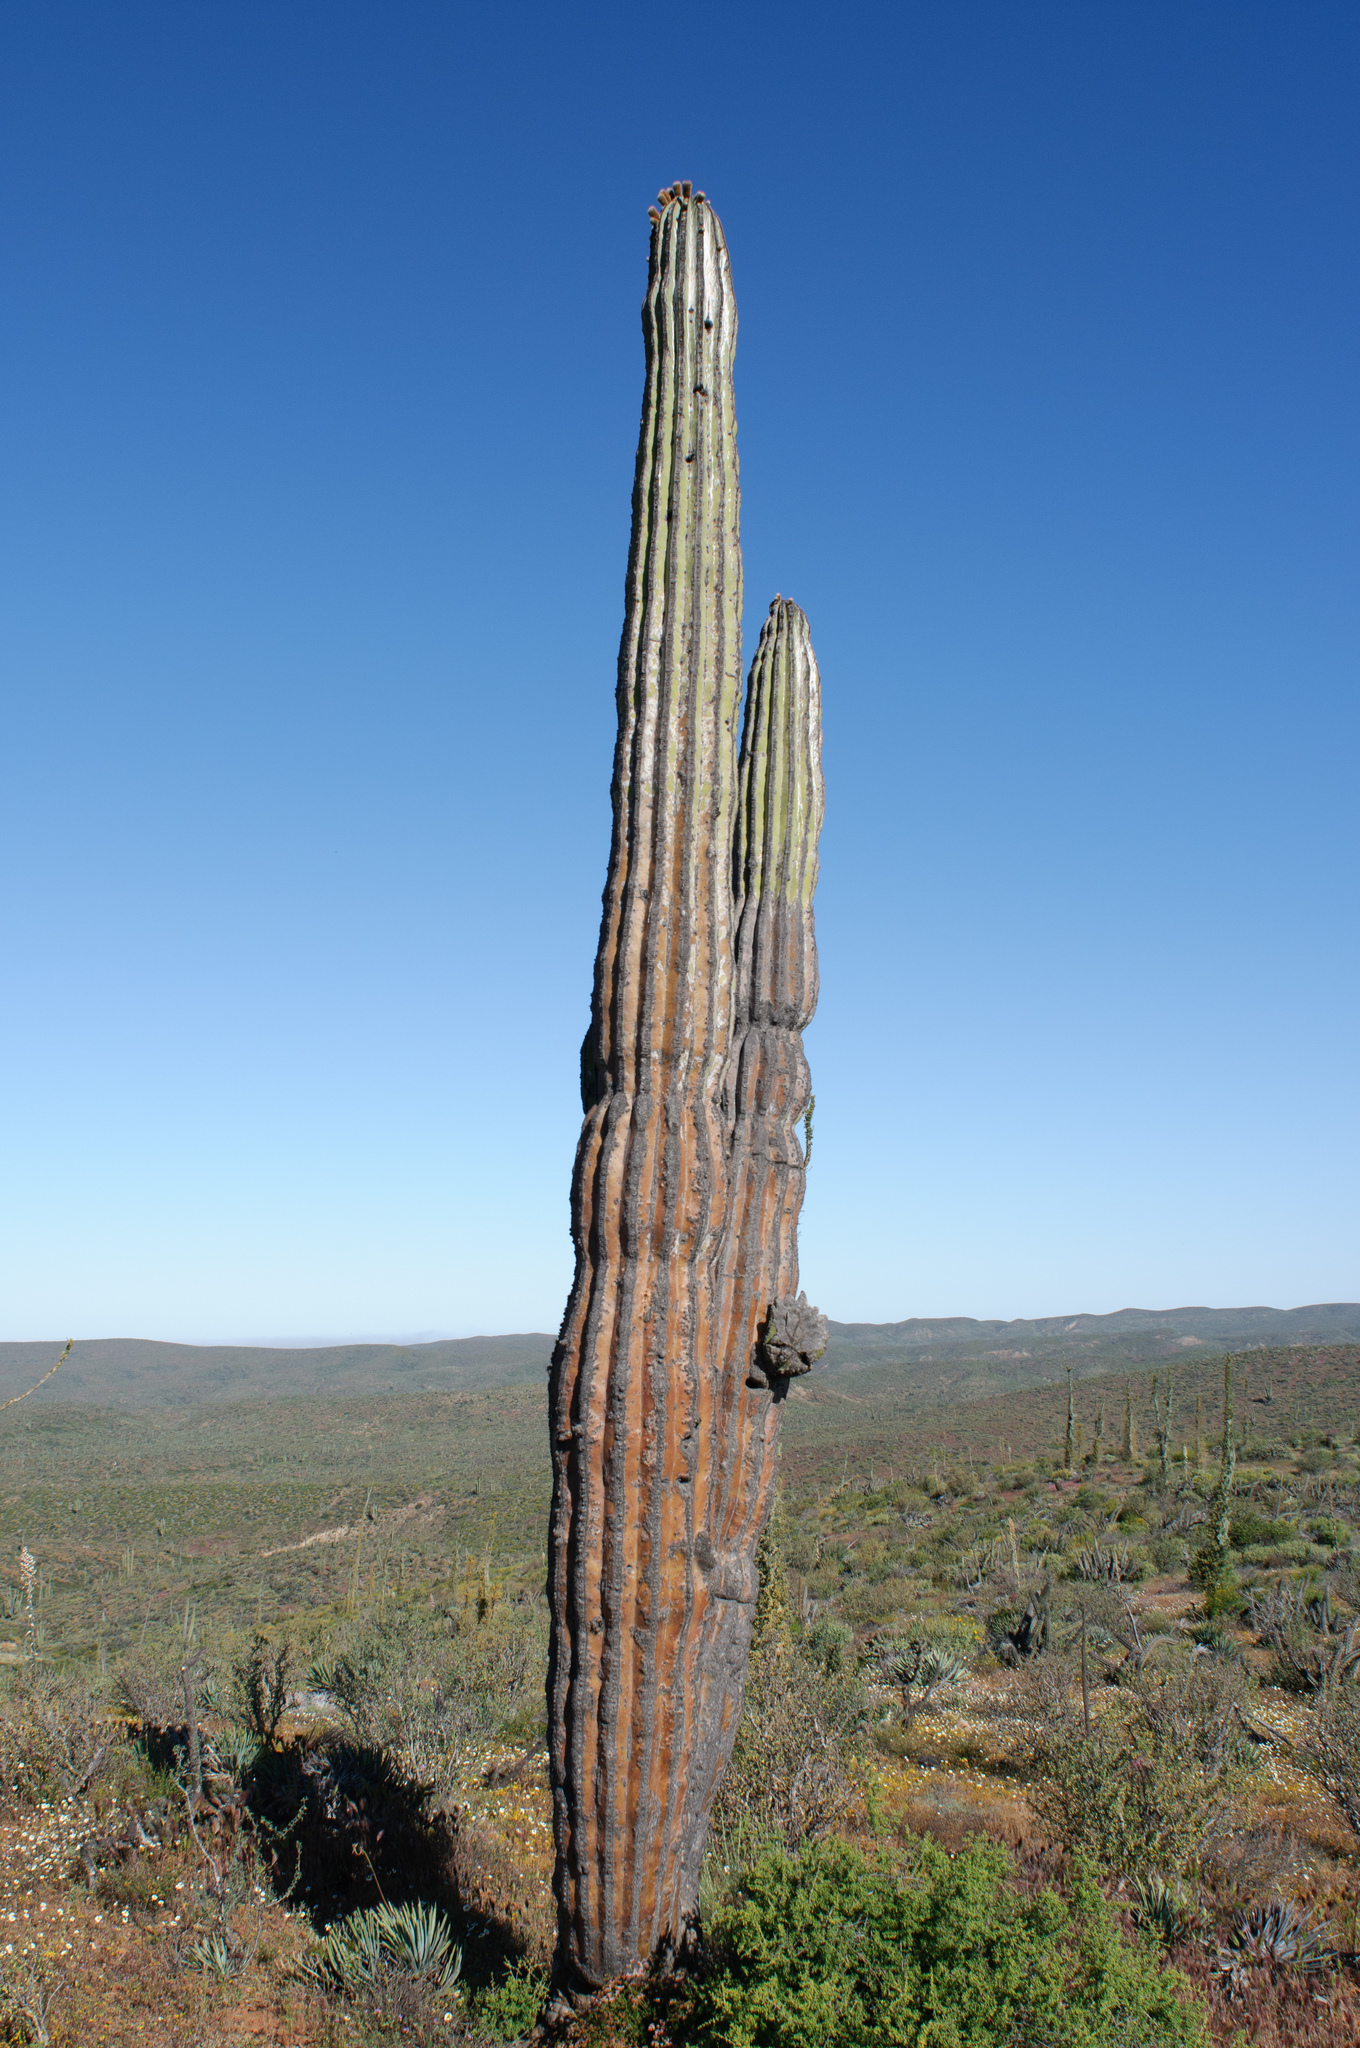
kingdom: Plantae
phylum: Tracheophyta
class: Magnoliopsida
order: Caryophyllales
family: Cactaceae
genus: Pachycereus
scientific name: Pachycereus pringlei
